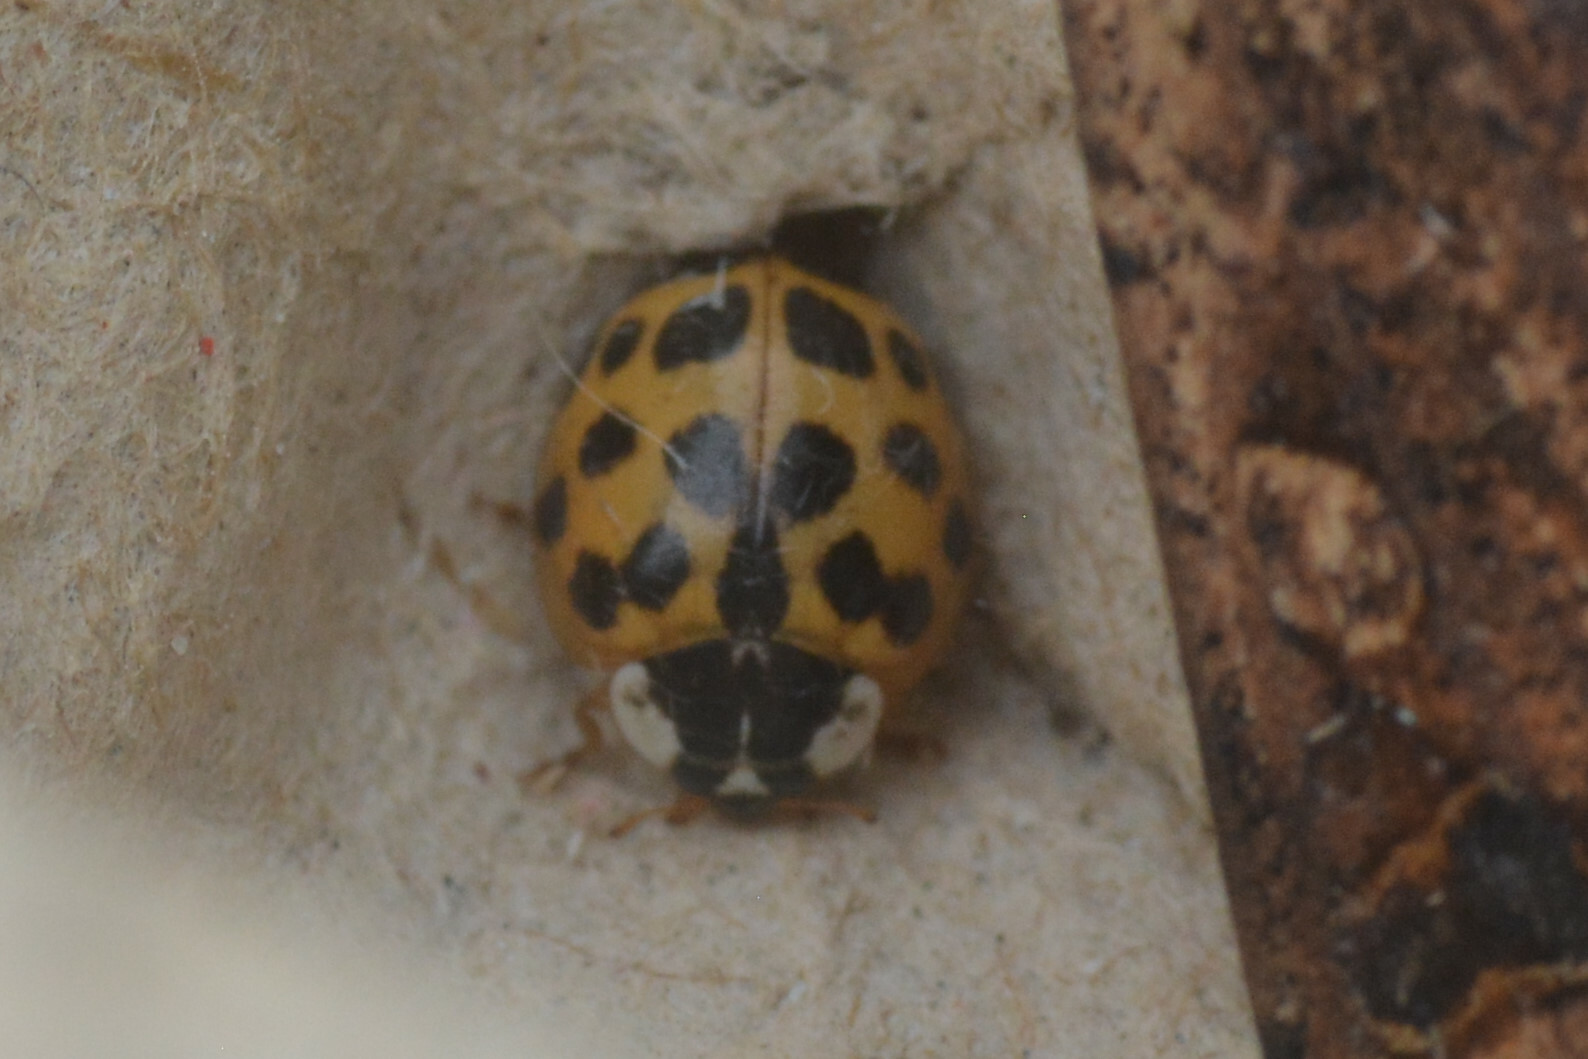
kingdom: Animalia
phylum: Arthropoda
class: Insecta
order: Coleoptera
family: Coccinellidae
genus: Harmonia
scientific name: Harmonia axyridis
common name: Harlequin ladybird
